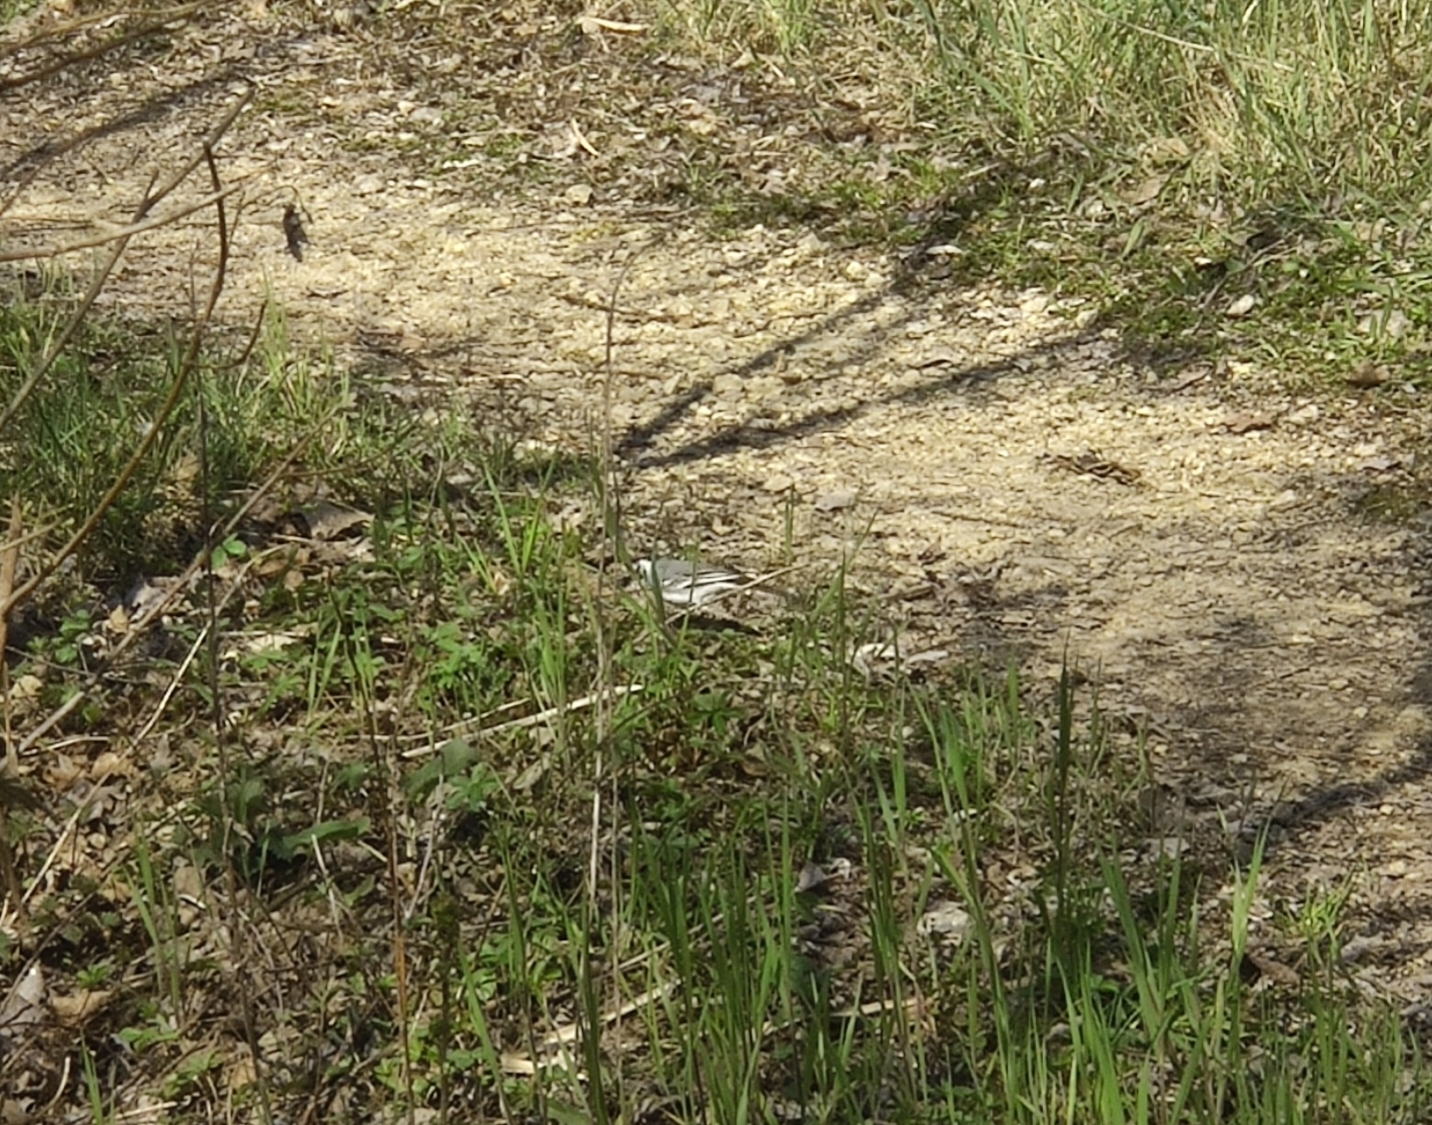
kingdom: Animalia
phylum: Chordata
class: Aves
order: Passeriformes
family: Motacillidae
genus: Motacilla
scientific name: Motacilla alba
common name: White wagtail
